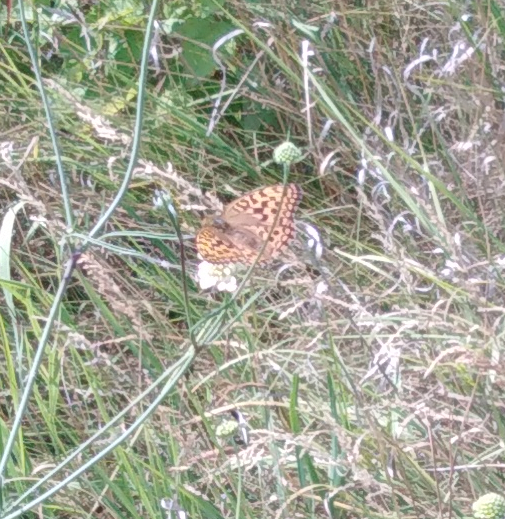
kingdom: Animalia
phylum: Arthropoda
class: Insecta
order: Lepidoptera
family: Nymphalidae
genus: Fabriciana
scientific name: Fabriciana adippe
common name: High brown fritillary
